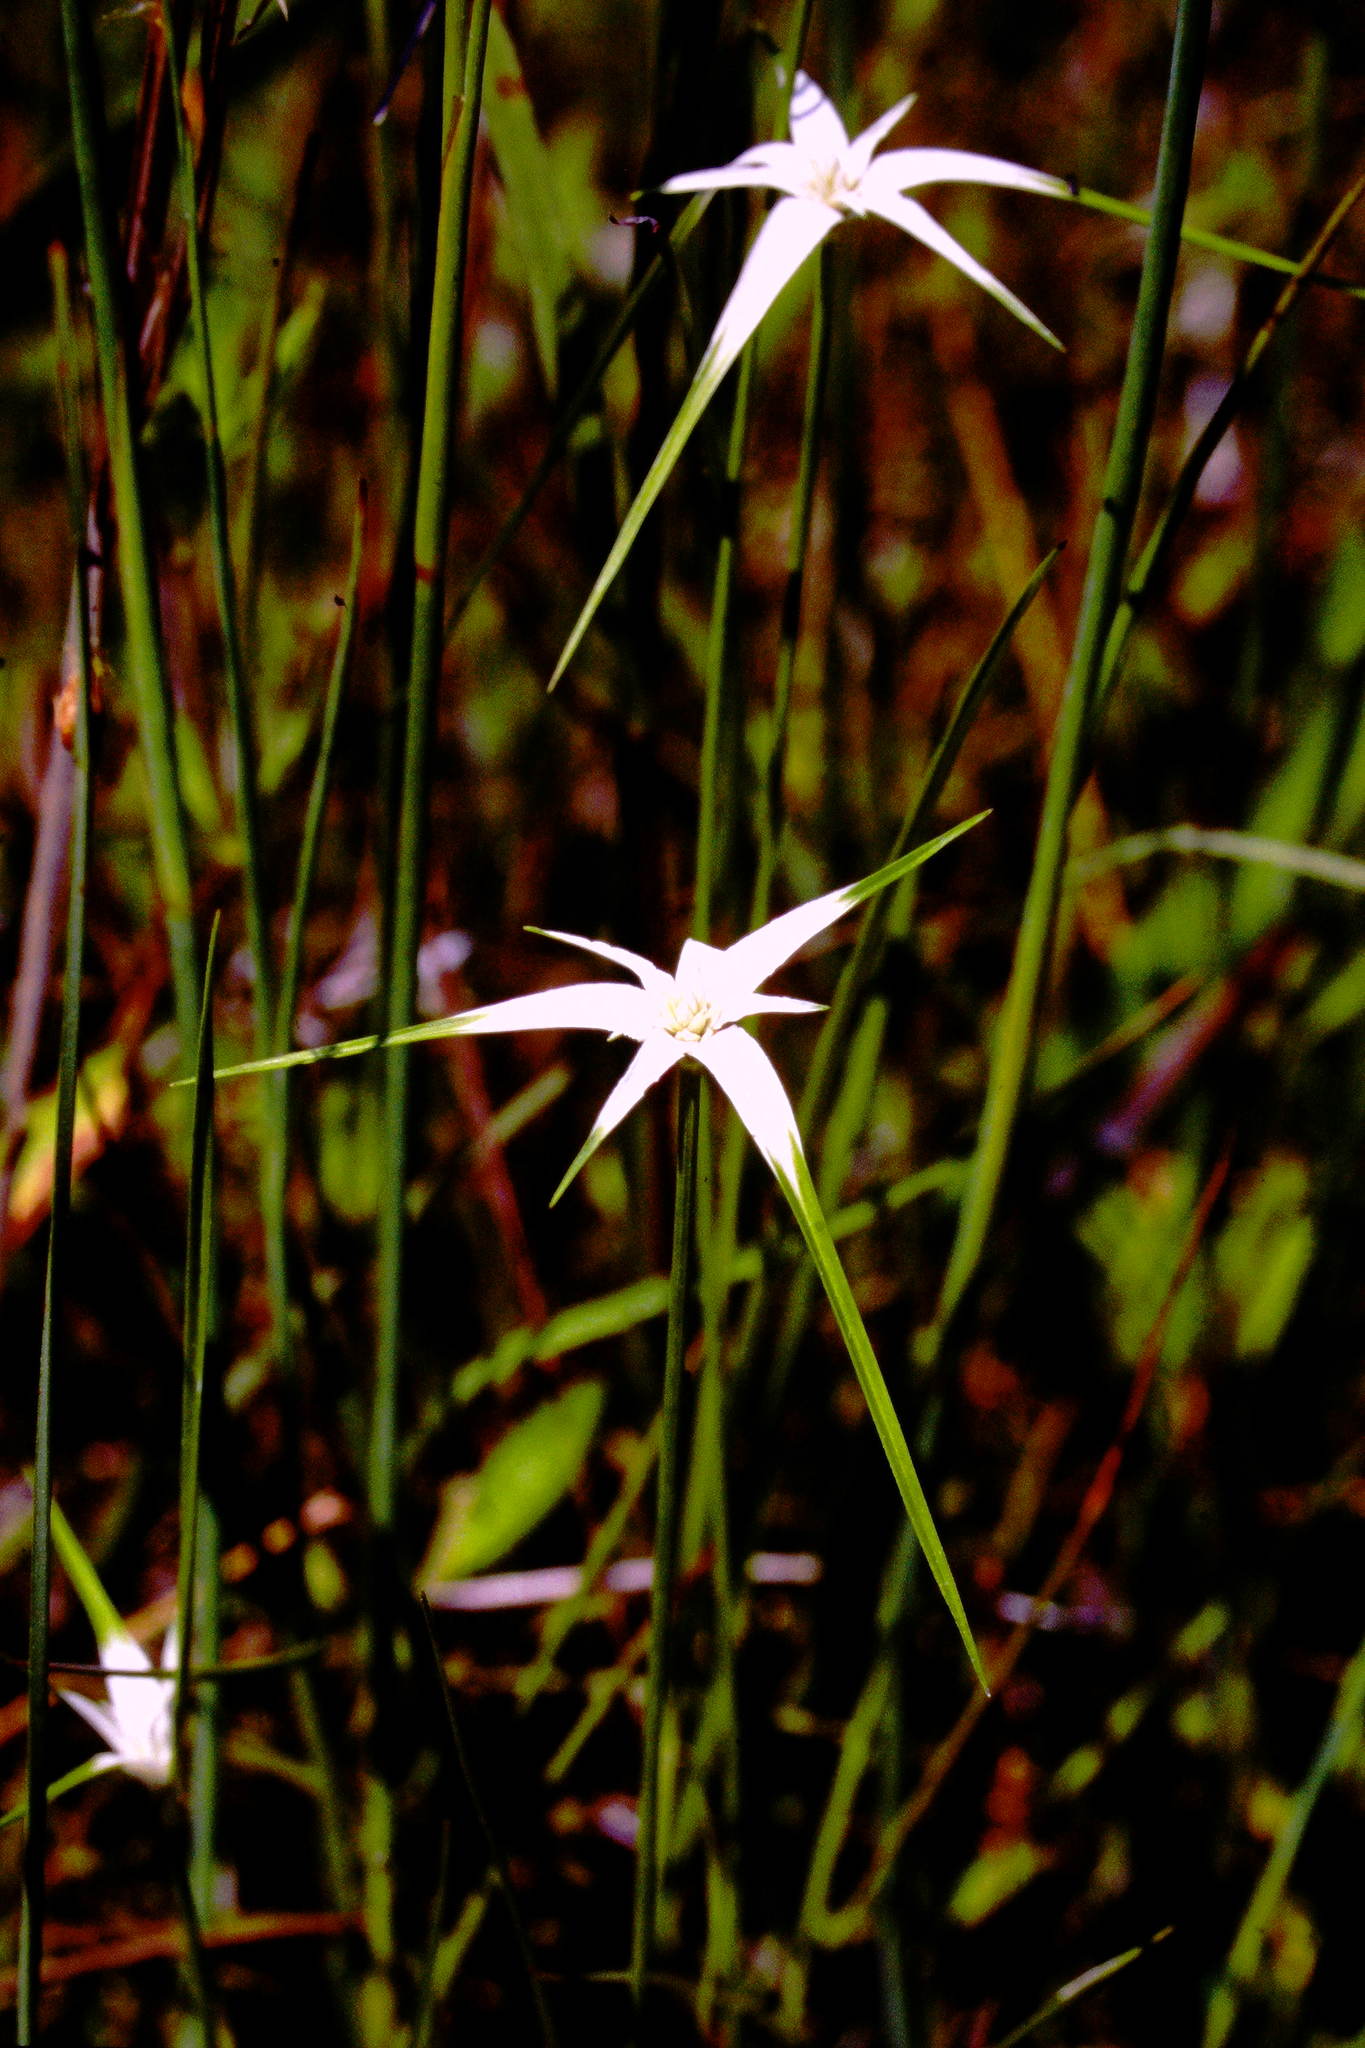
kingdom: Plantae
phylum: Tracheophyta
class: Liliopsida
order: Poales
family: Cyperaceae
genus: Rhynchospora
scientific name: Rhynchospora colorata
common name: Star sedge
